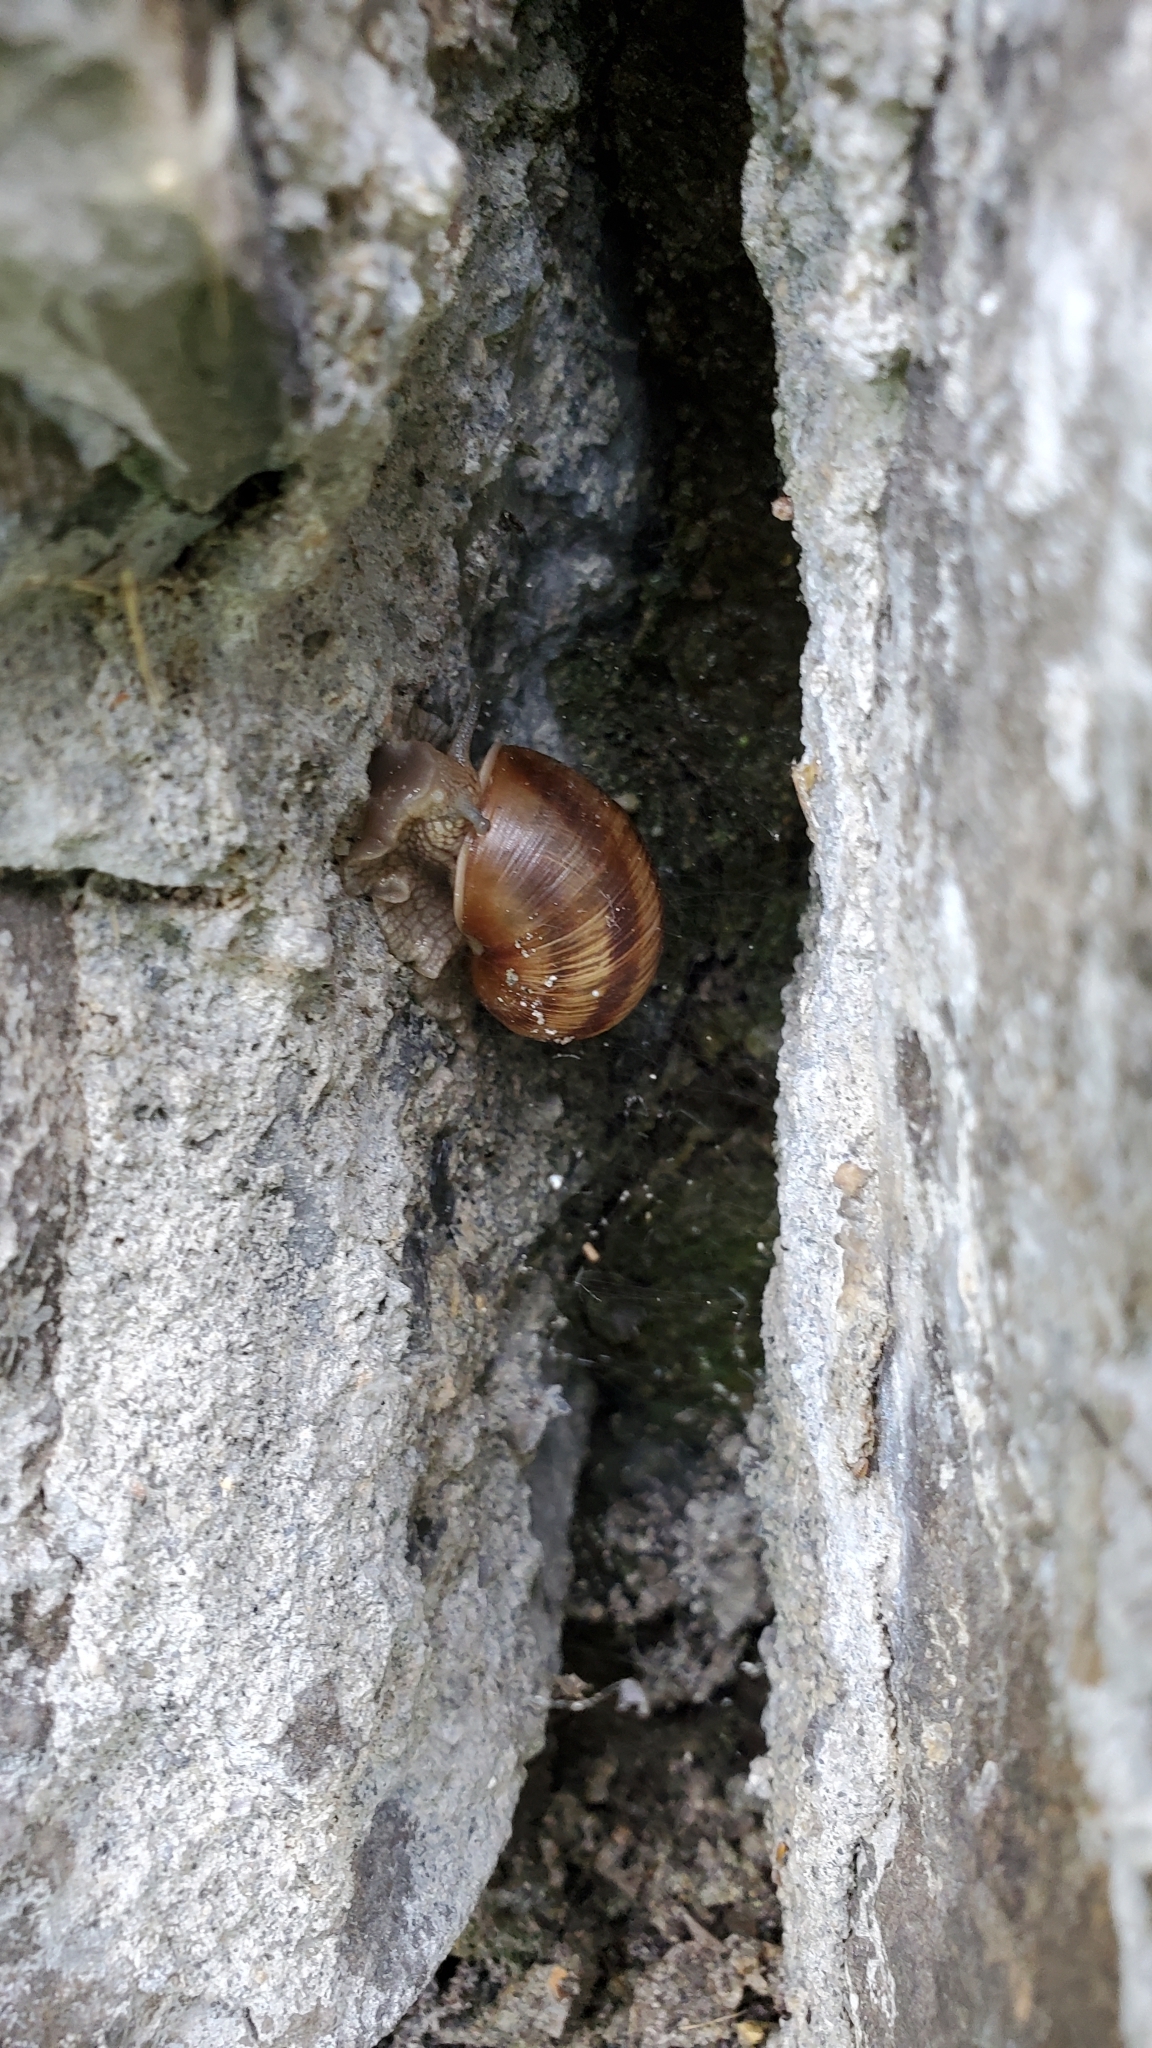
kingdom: Animalia
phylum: Mollusca
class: Gastropoda
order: Stylommatophora
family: Helicidae
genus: Helix
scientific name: Helix pomatia
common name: Roman snail
